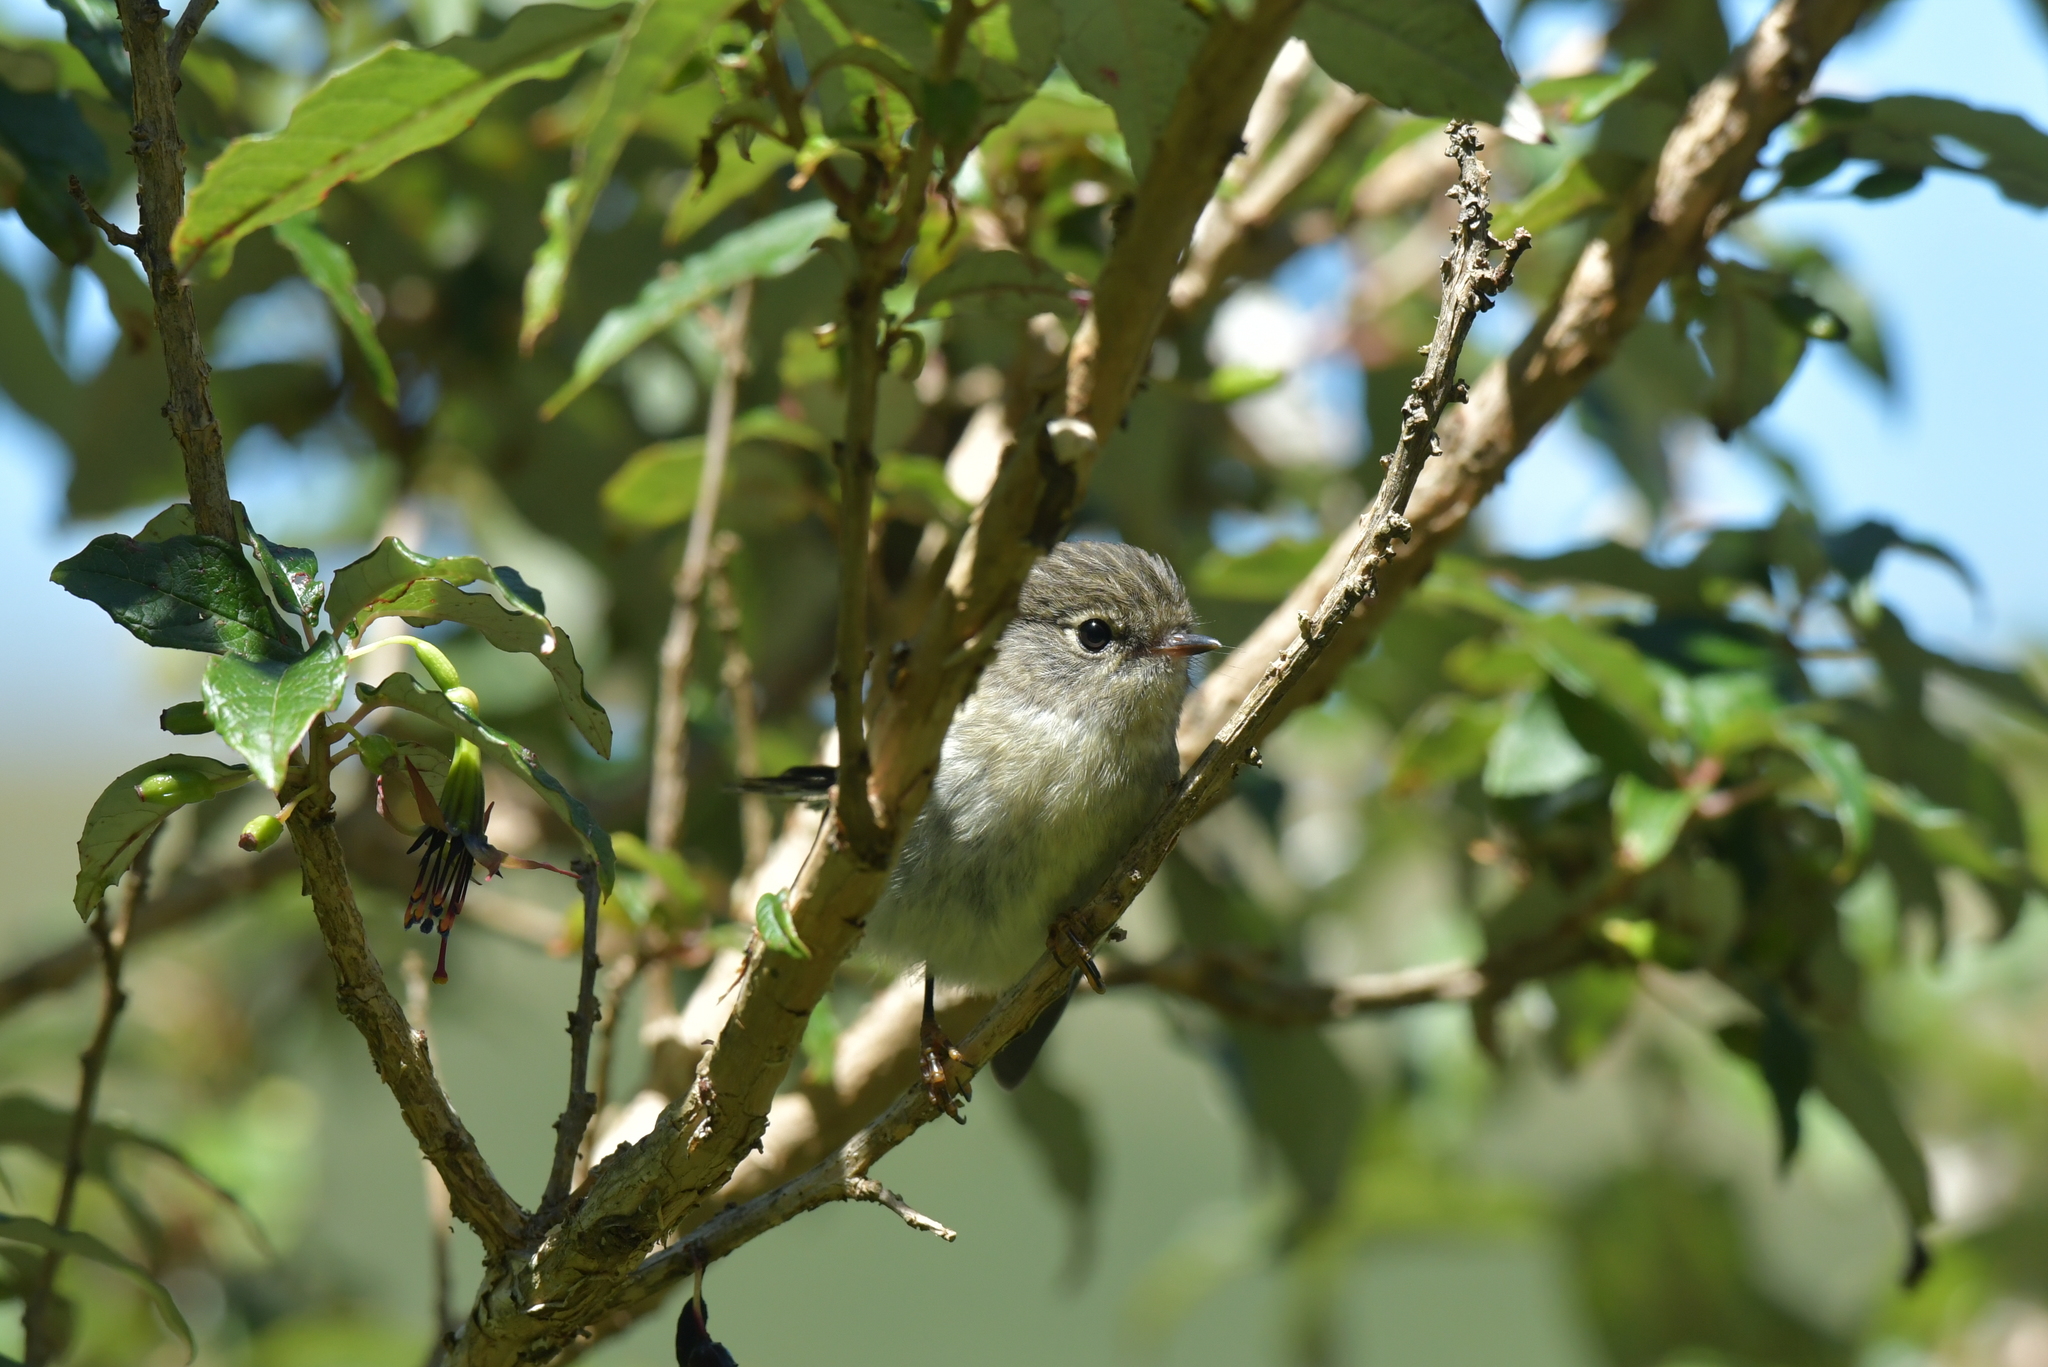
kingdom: Animalia
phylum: Chordata
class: Aves
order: Passeriformes
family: Petroicidae
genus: Petroica
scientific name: Petroica macrocephala
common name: Tomtit
